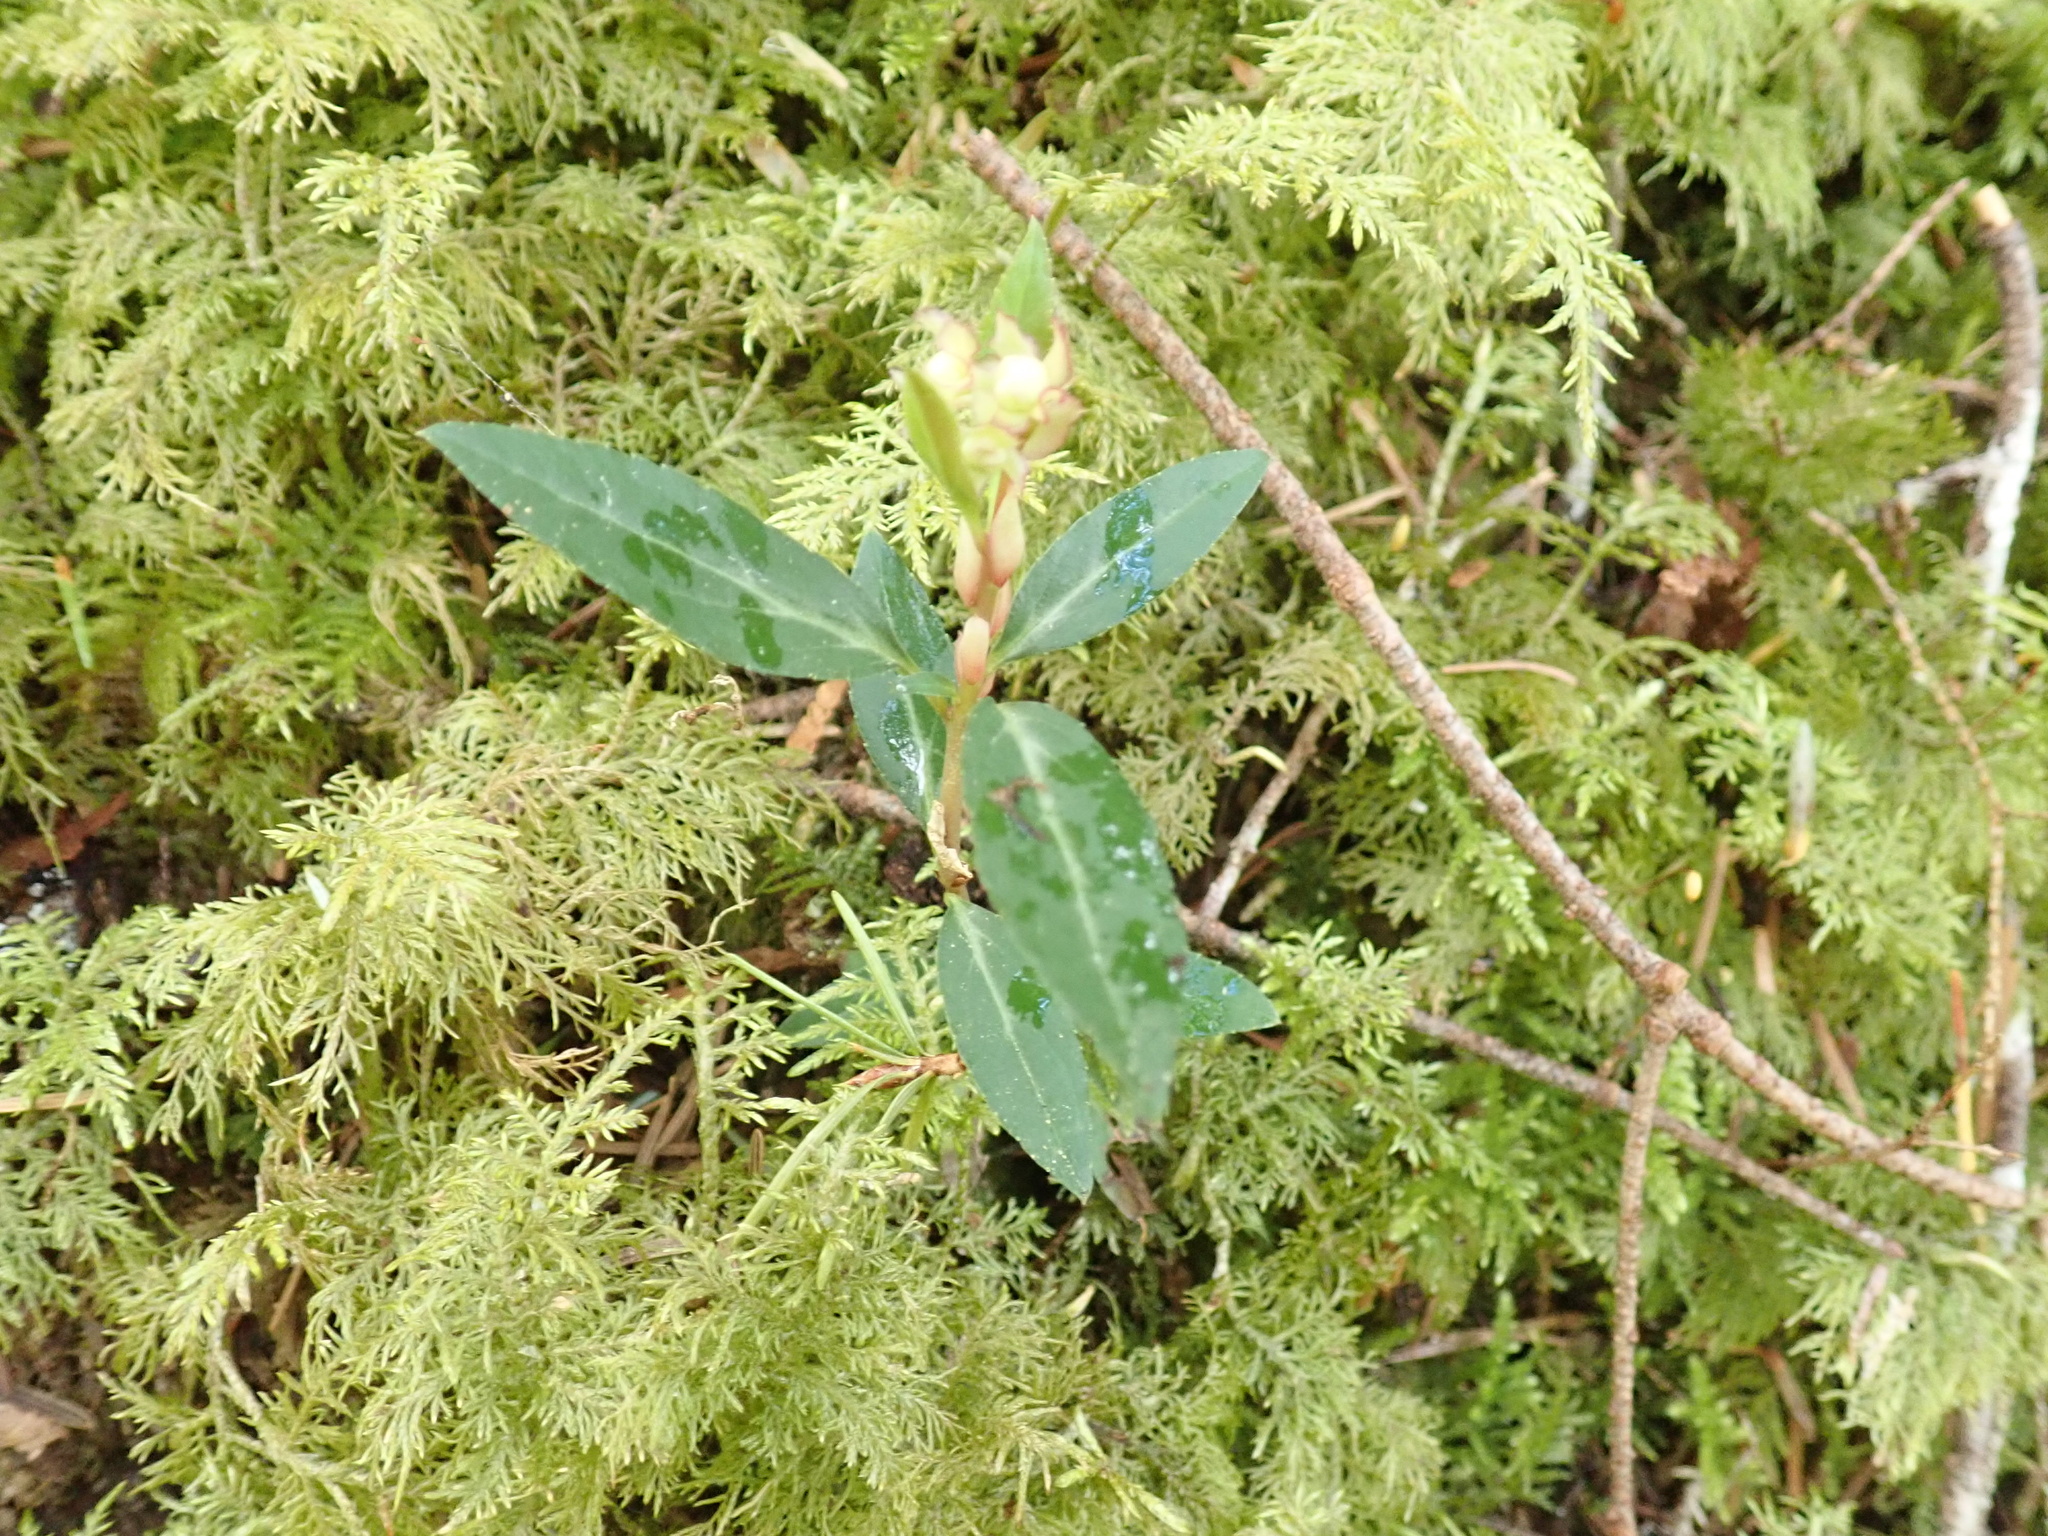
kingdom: Plantae
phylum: Tracheophyta
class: Magnoliopsida
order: Ericales
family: Ericaceae
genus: Chimaphila
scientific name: Chimaphila menziesii
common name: Menzies' pipsissewa
